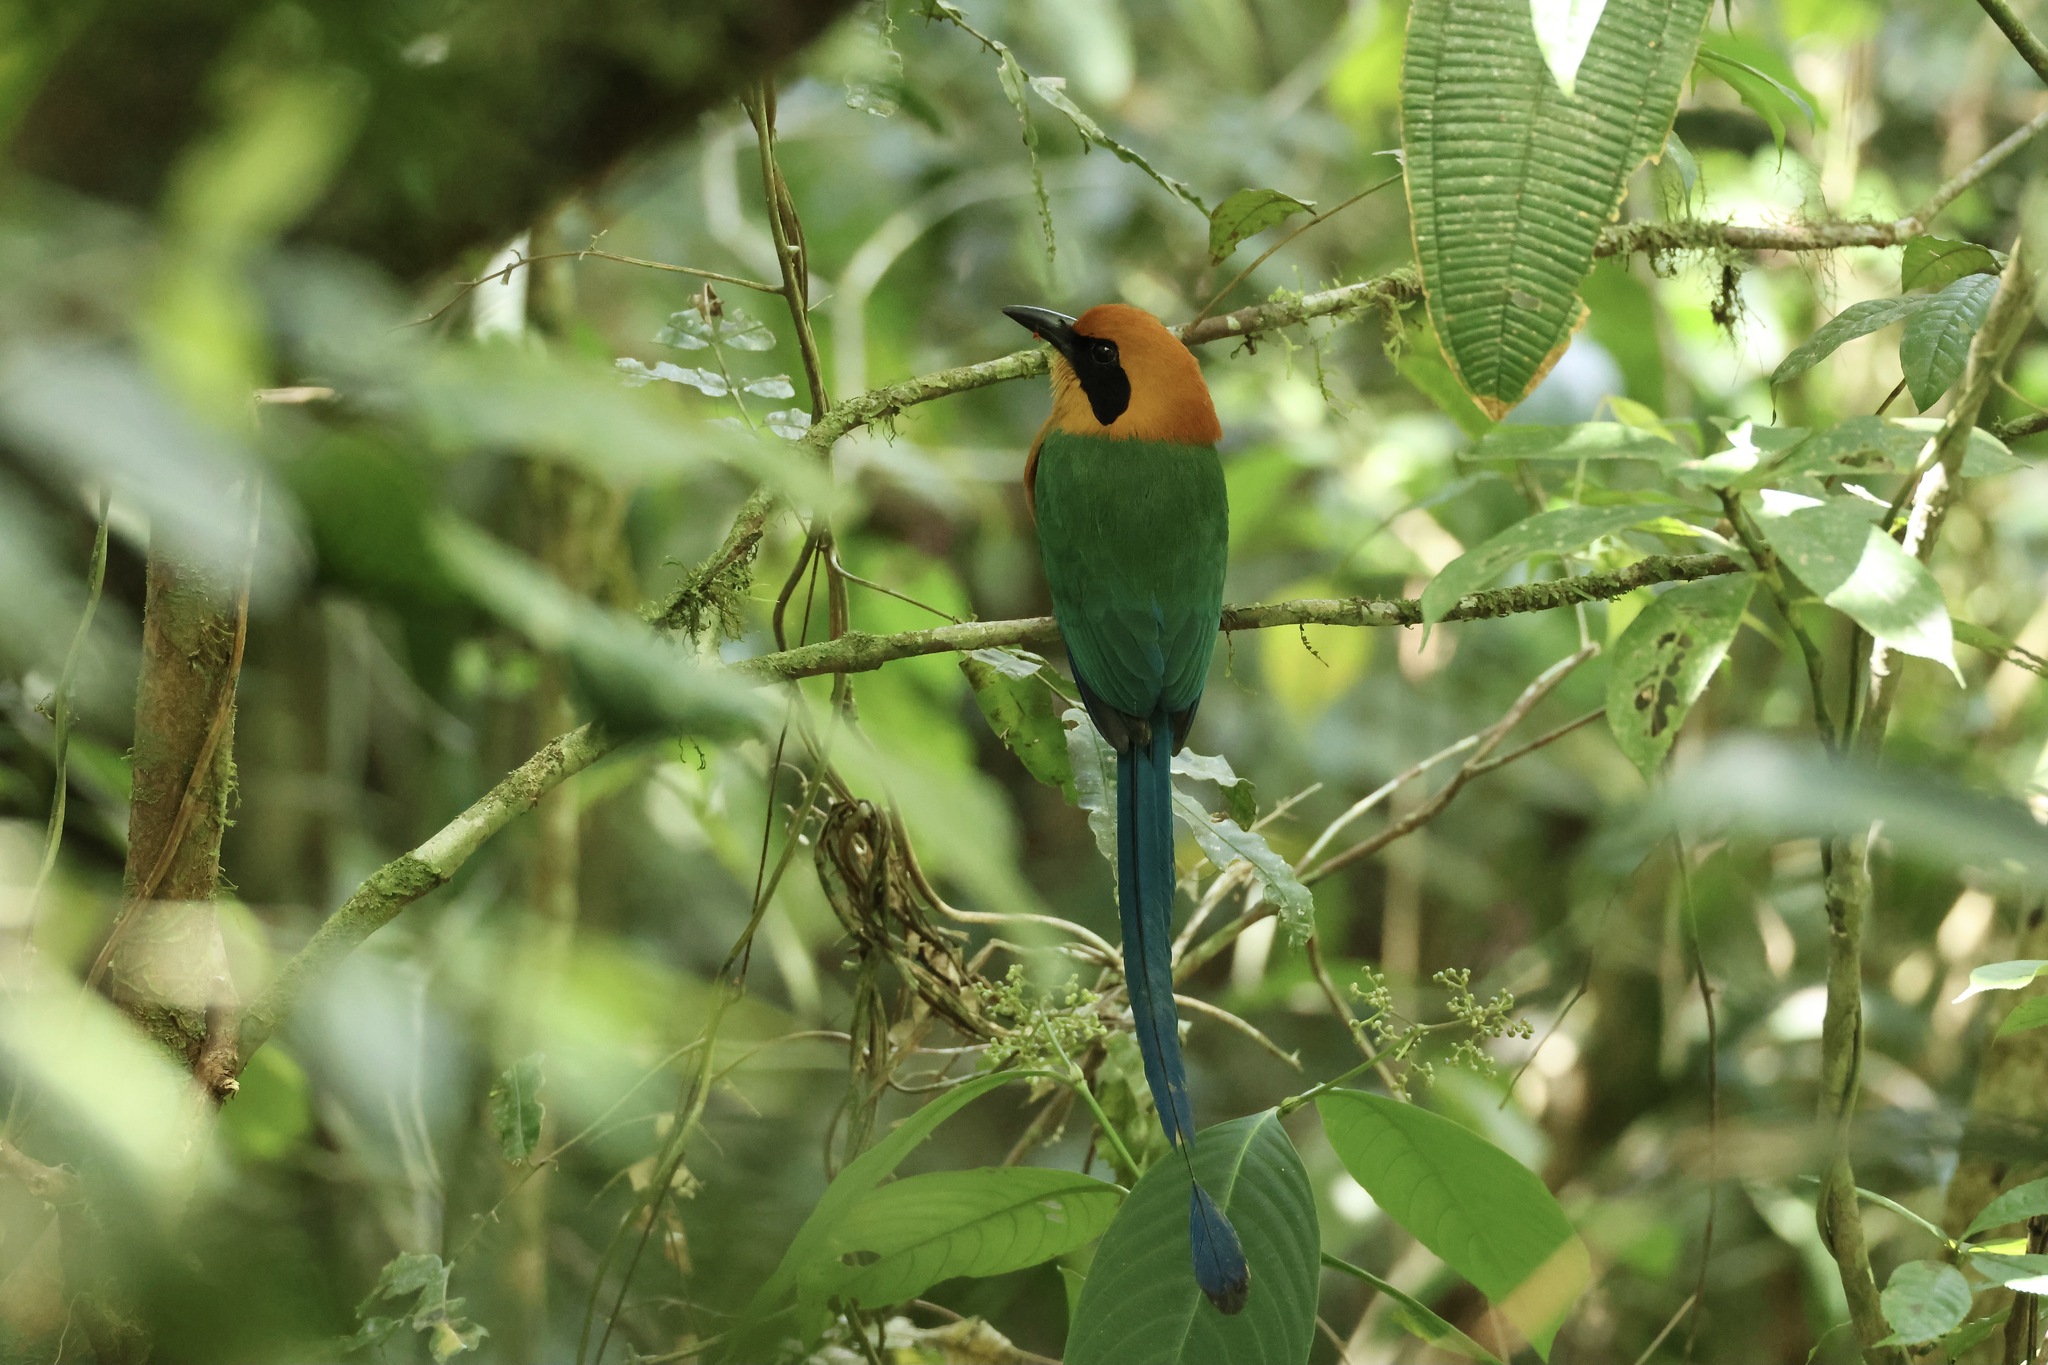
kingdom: Animalia
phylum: Chordata
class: Aves
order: Coraciiformes
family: Momotidae
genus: Baryphthengus
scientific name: Baryphthengus martii
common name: Rufous motmot
